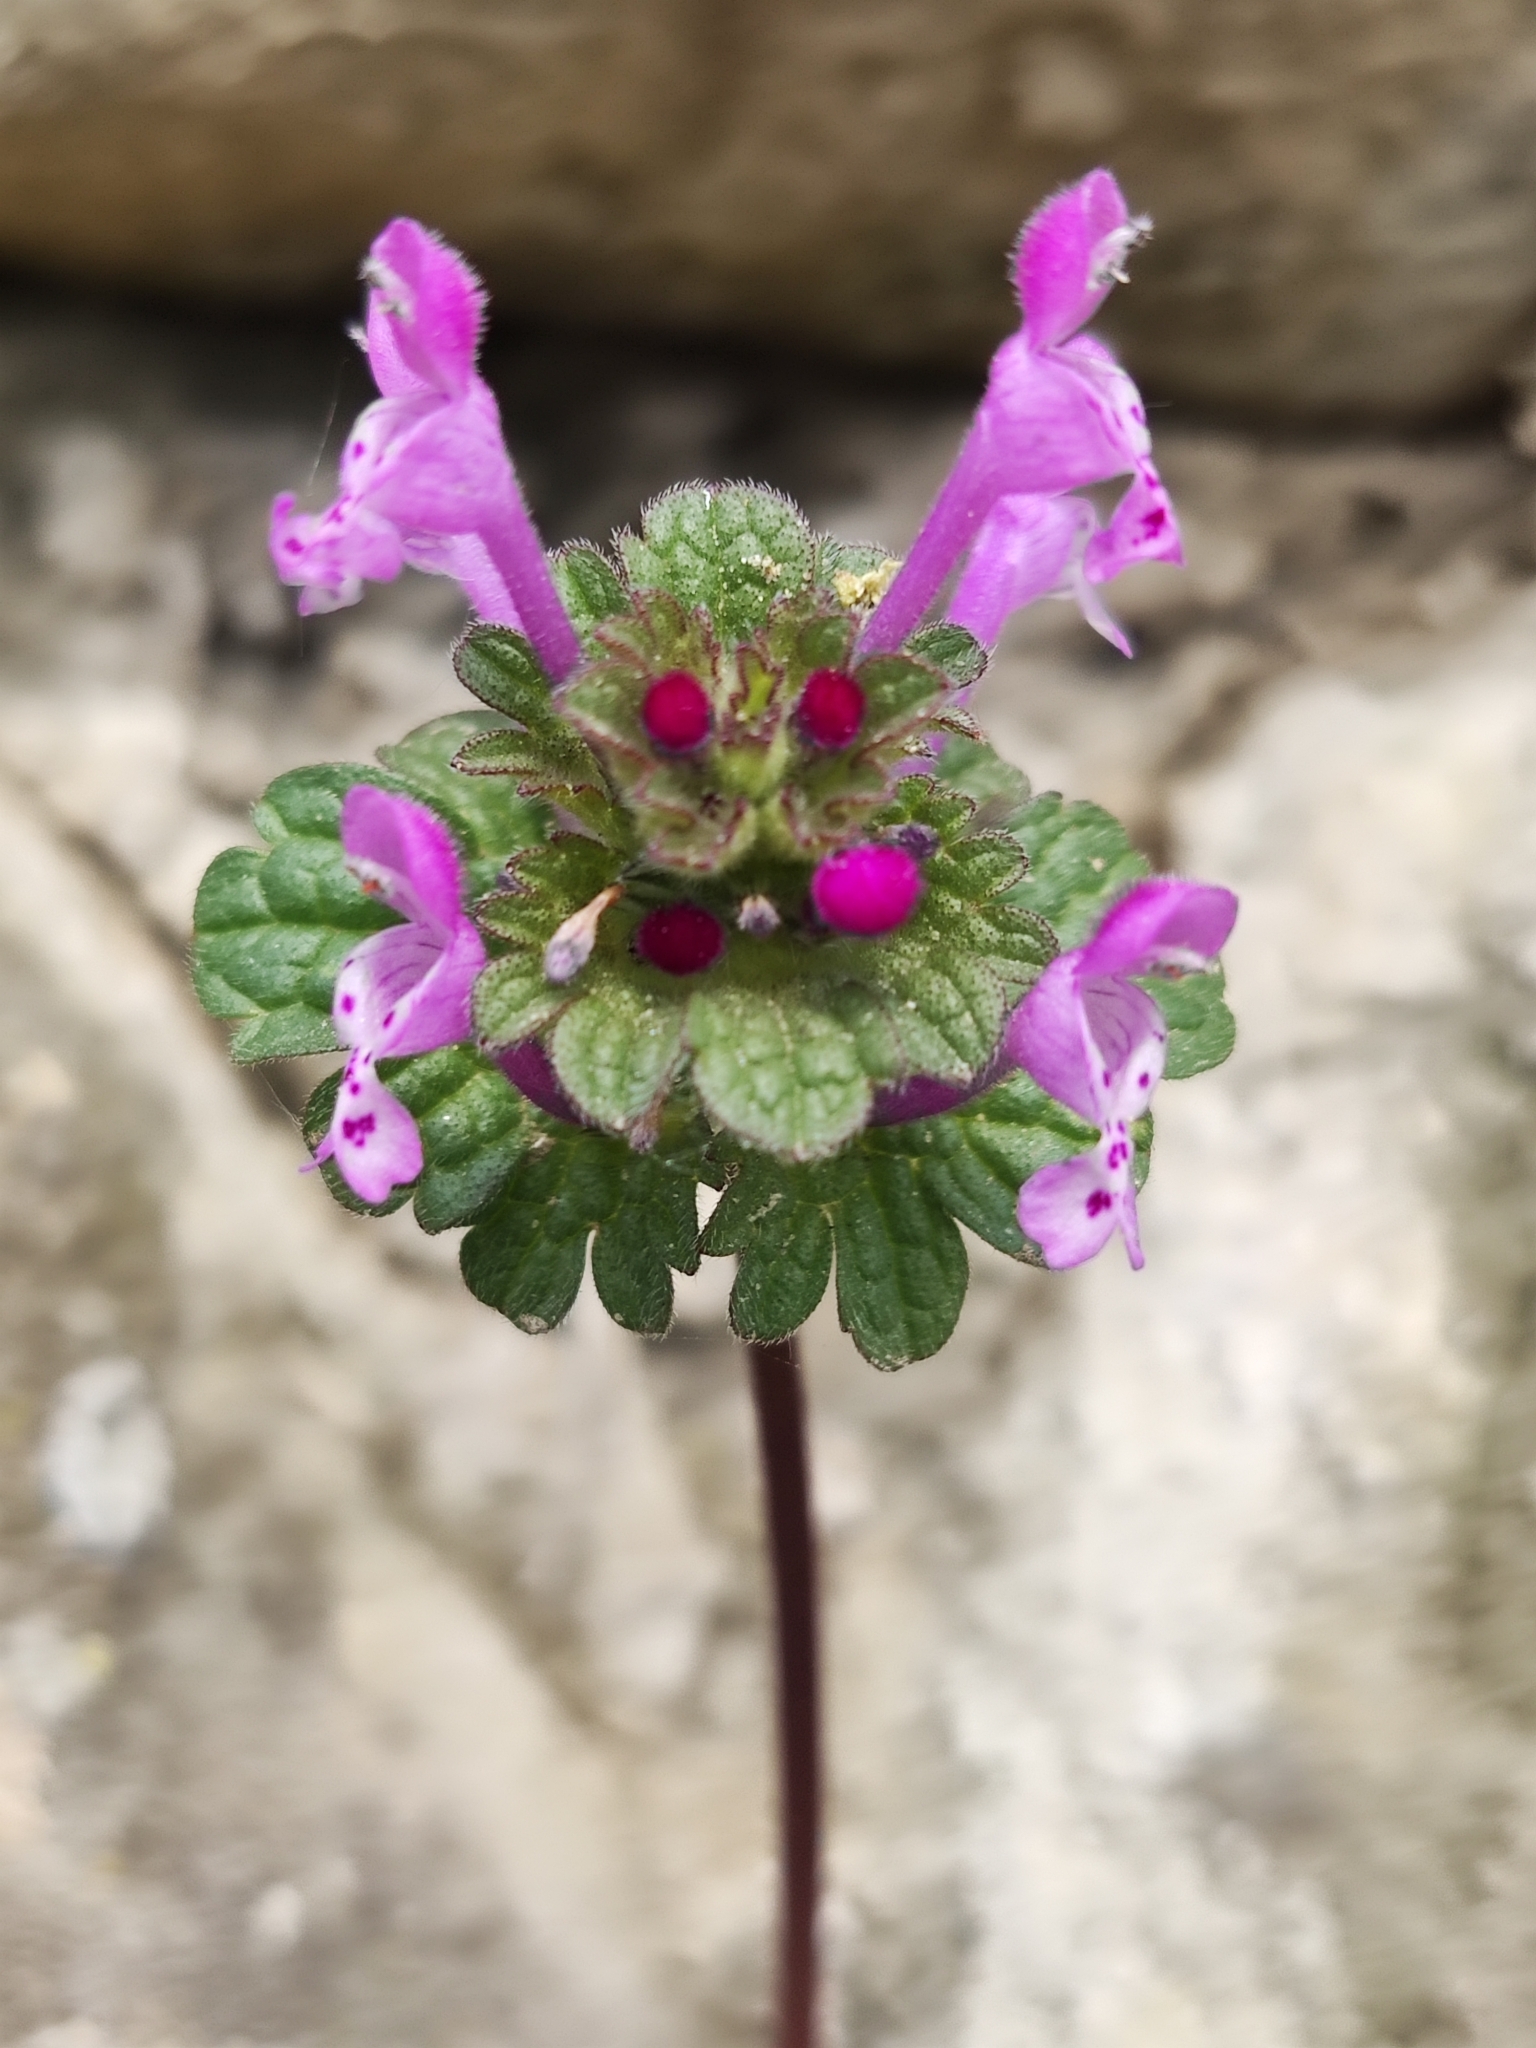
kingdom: Plantae
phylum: Tracheophyta
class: Magnoliopsida
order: Lamiales
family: Lamiaceae
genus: Lamium
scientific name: Lamium amplexicaule
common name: Henbit dead-nettle
